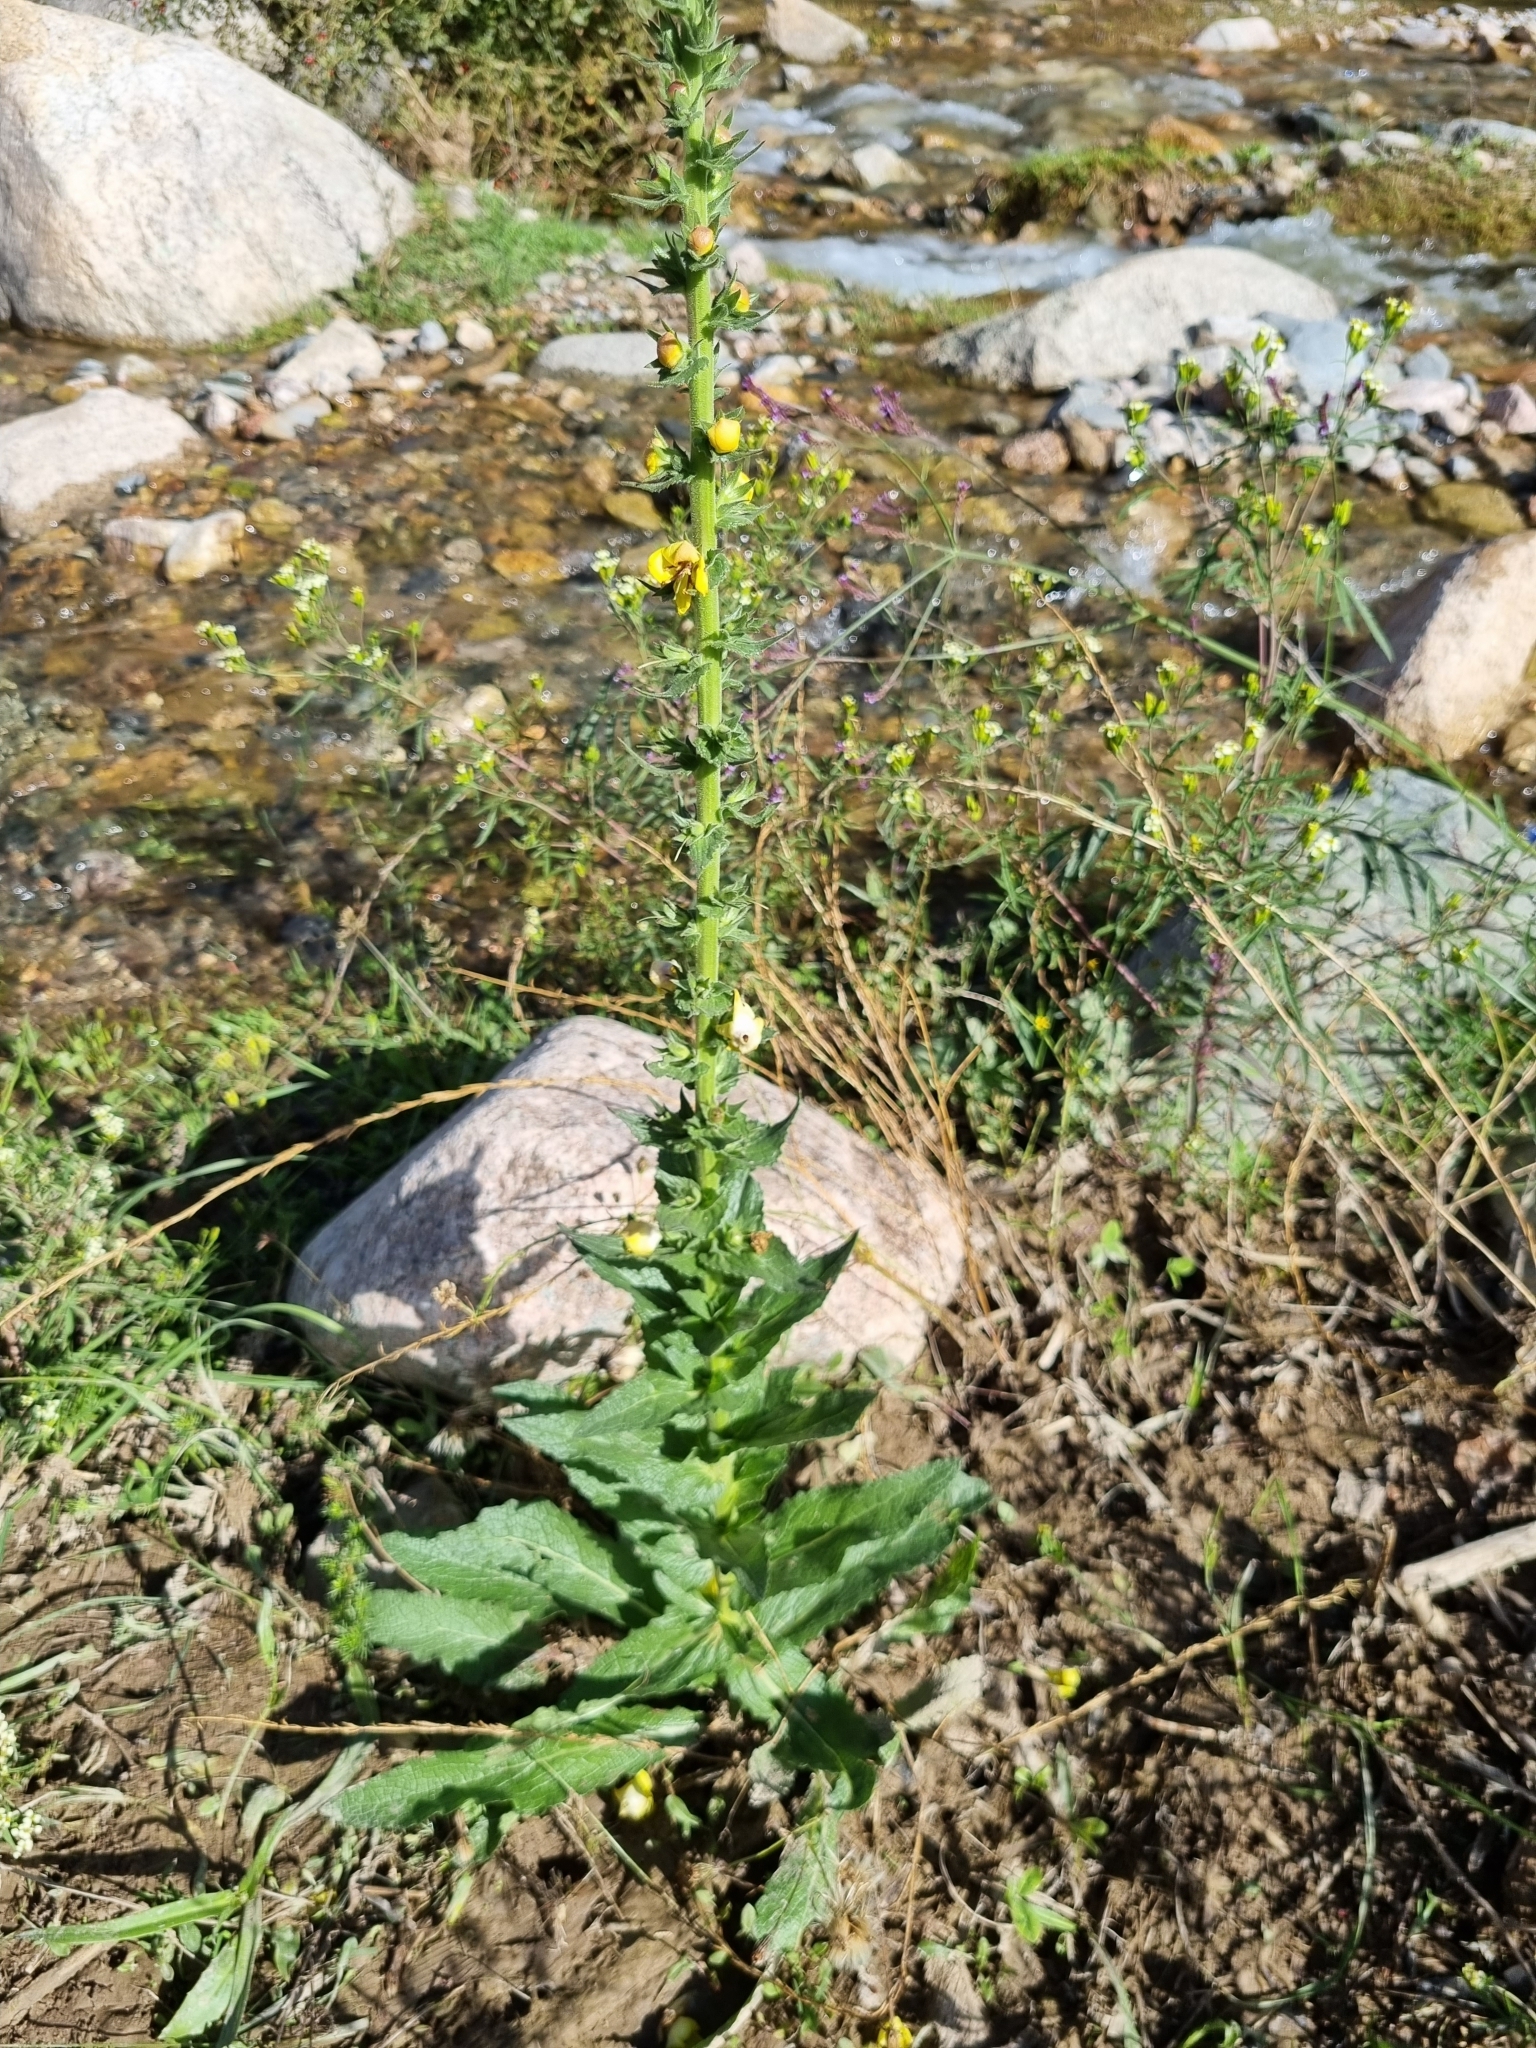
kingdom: Plantae
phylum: Tracheophyta
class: Magnoliopsida
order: Lamiales
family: Scrophulariaceae
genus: Verbascum
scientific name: Verbascum virgatum
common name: Twiggy mullein
